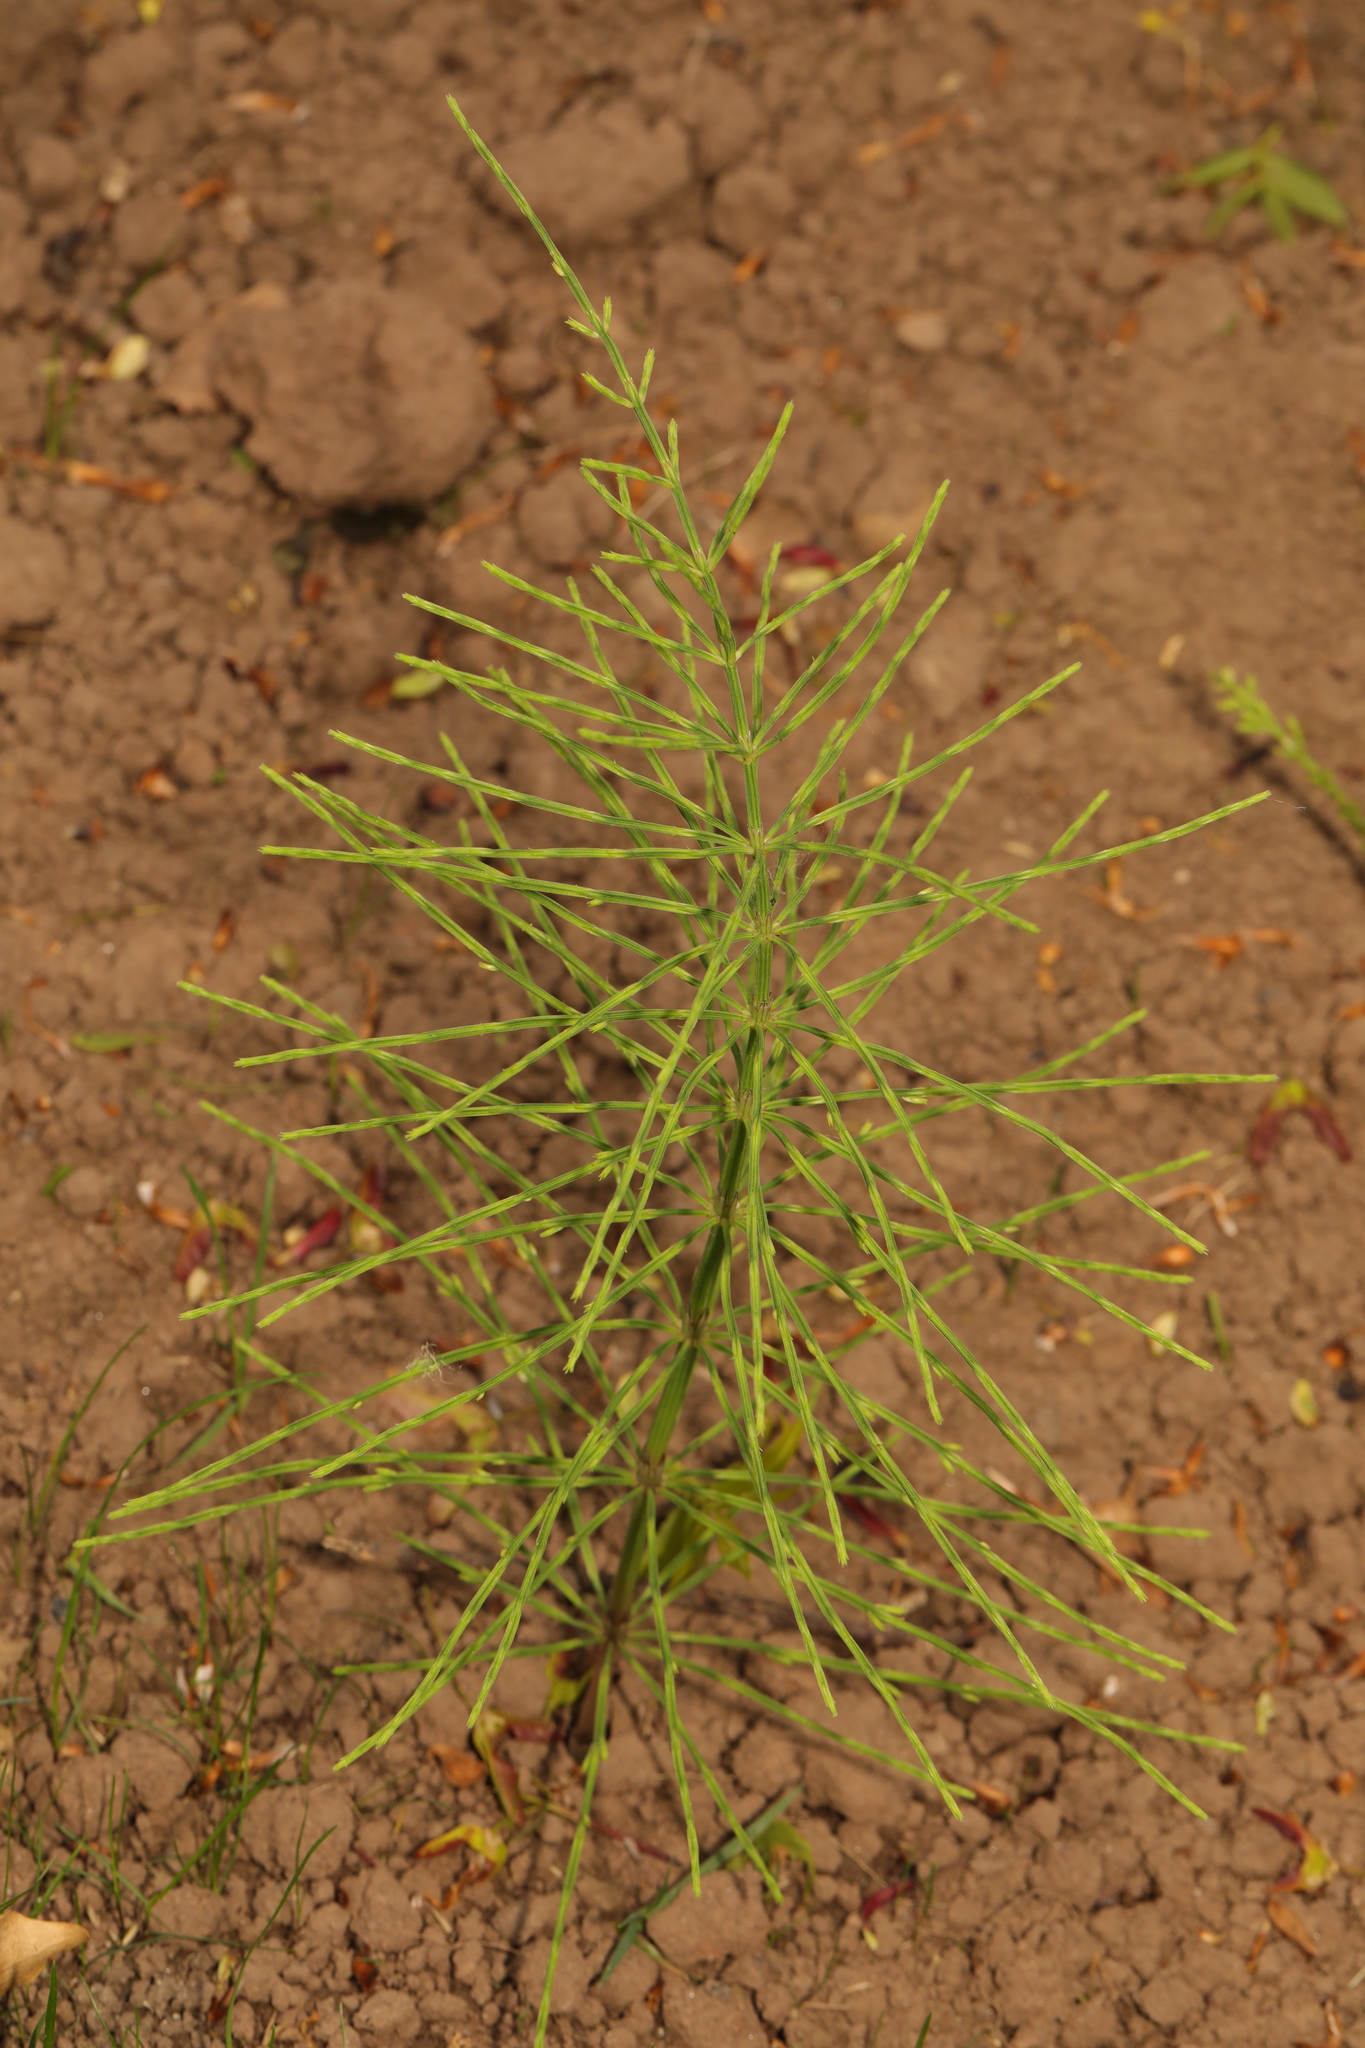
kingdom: Plantae
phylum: Tracheophyta
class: Polypodiopsida
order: Equisetales
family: Equisetaceae
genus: Equisetum
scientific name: Equisetum arvense
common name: Field horsetail
